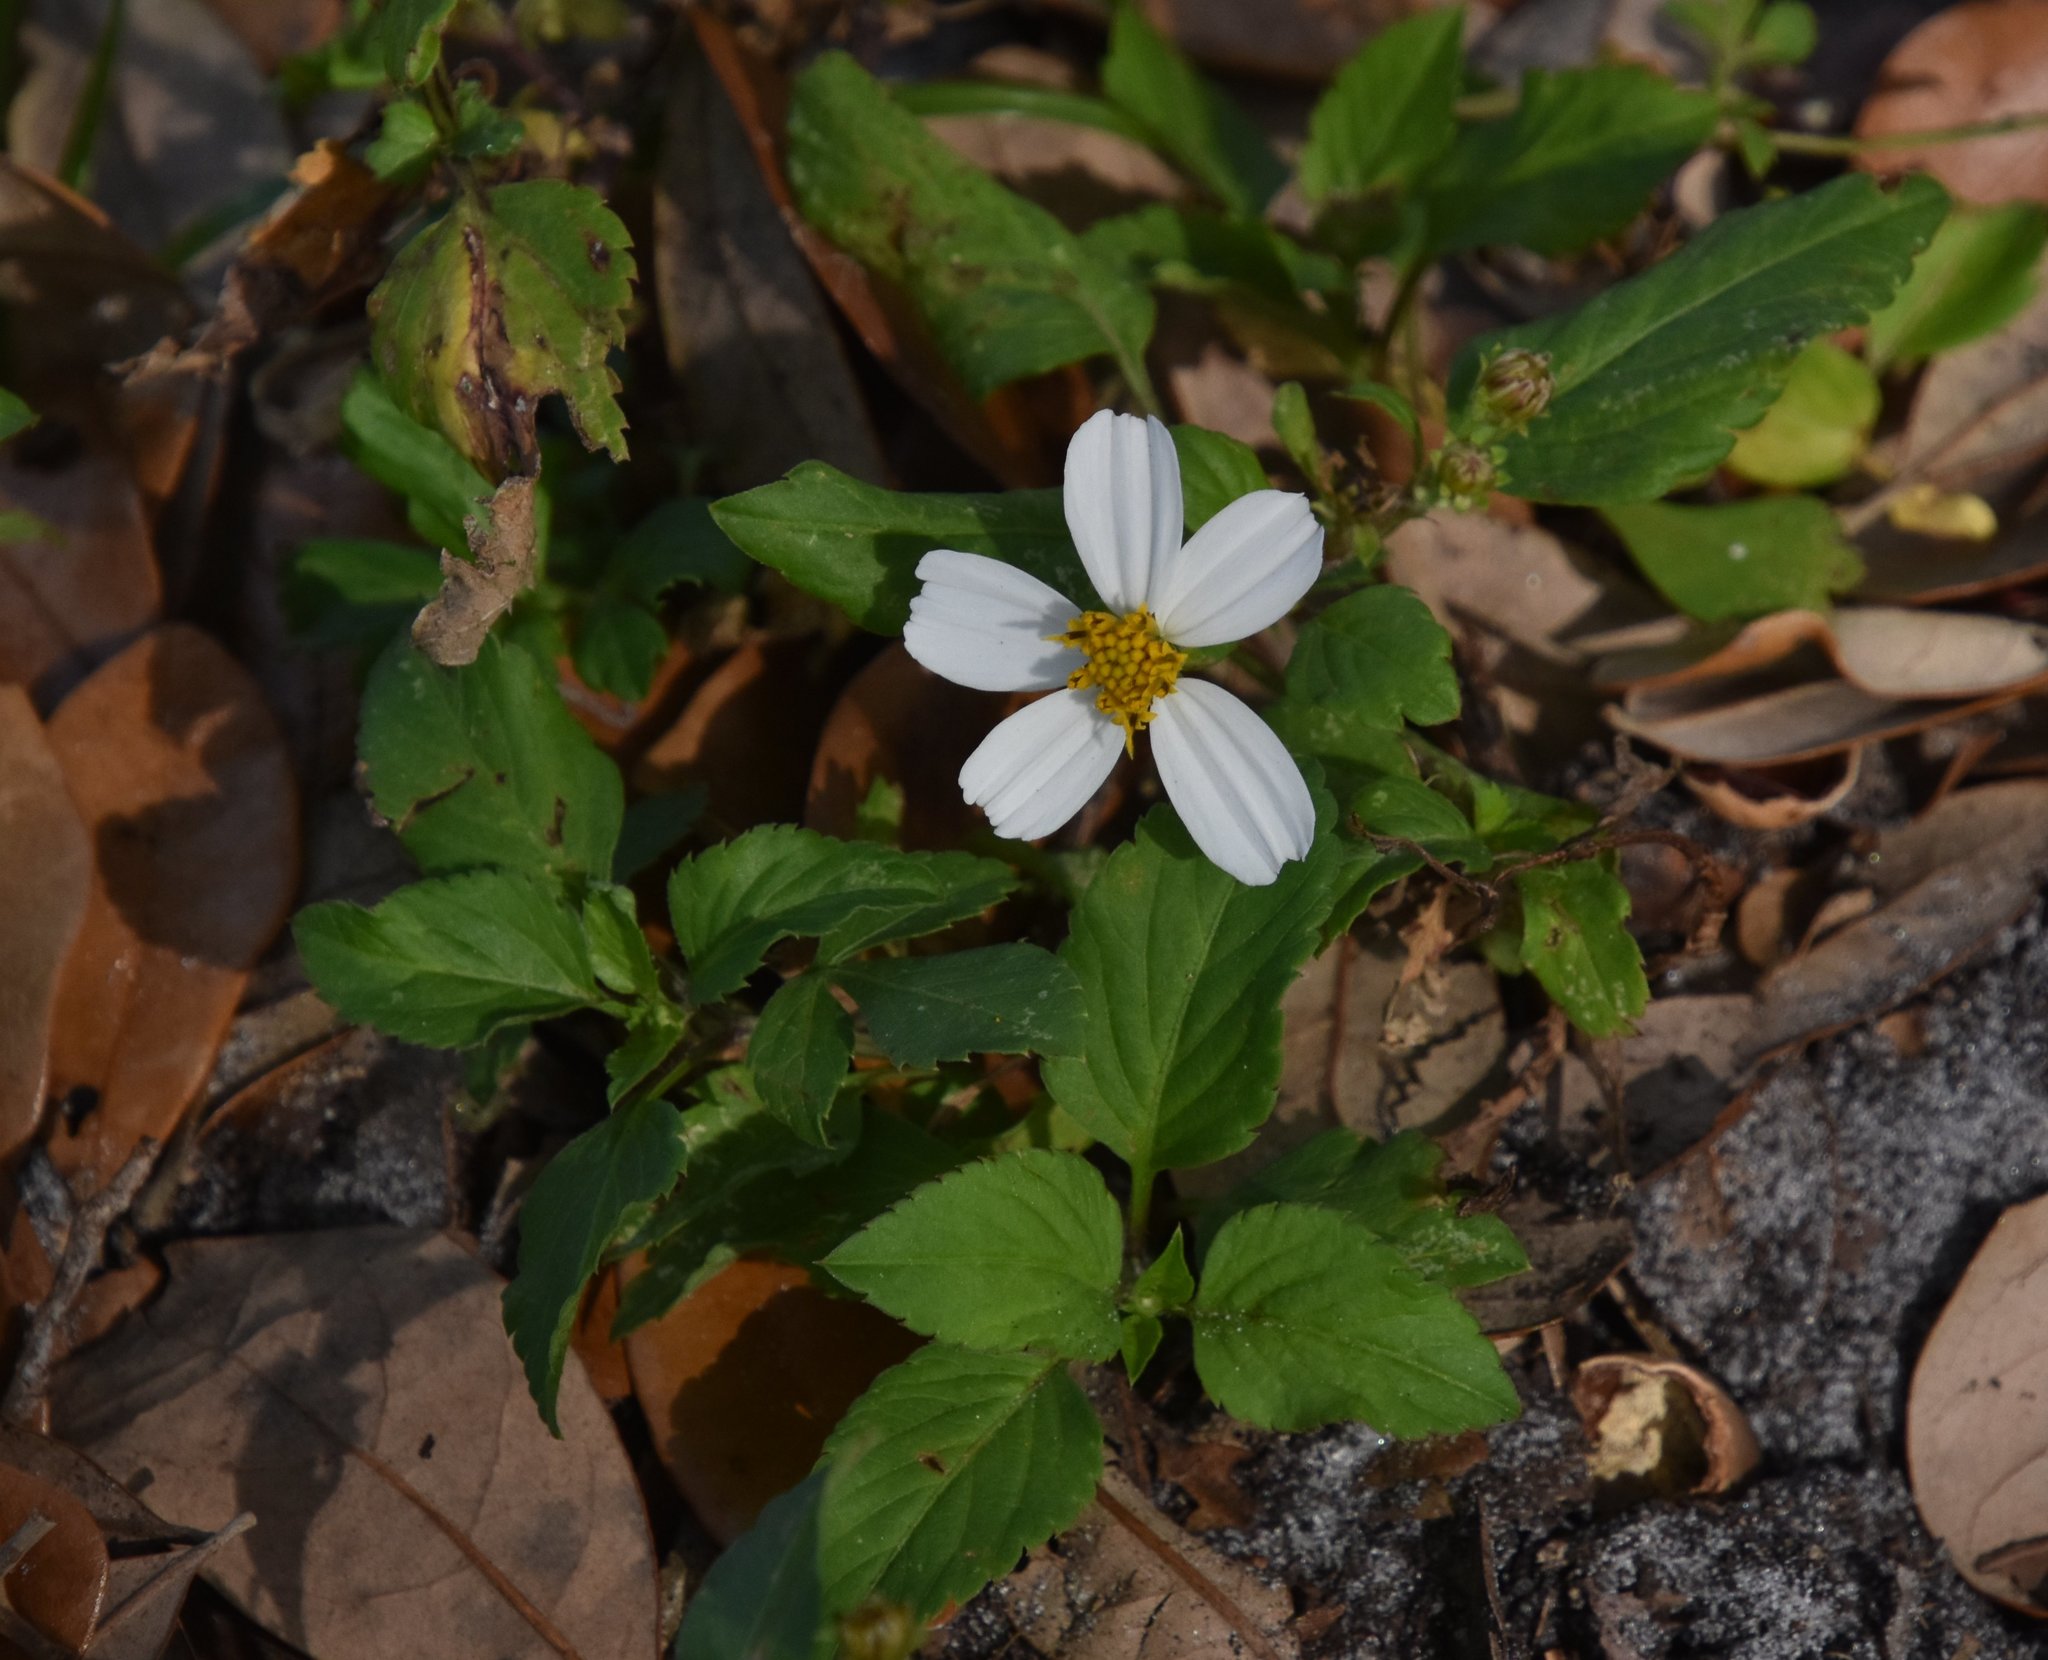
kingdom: Plantae
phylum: Tracheophyta
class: Magnoliopsida
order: Asterales
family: Asteraceae
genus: Bidens
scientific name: Bidens alba
